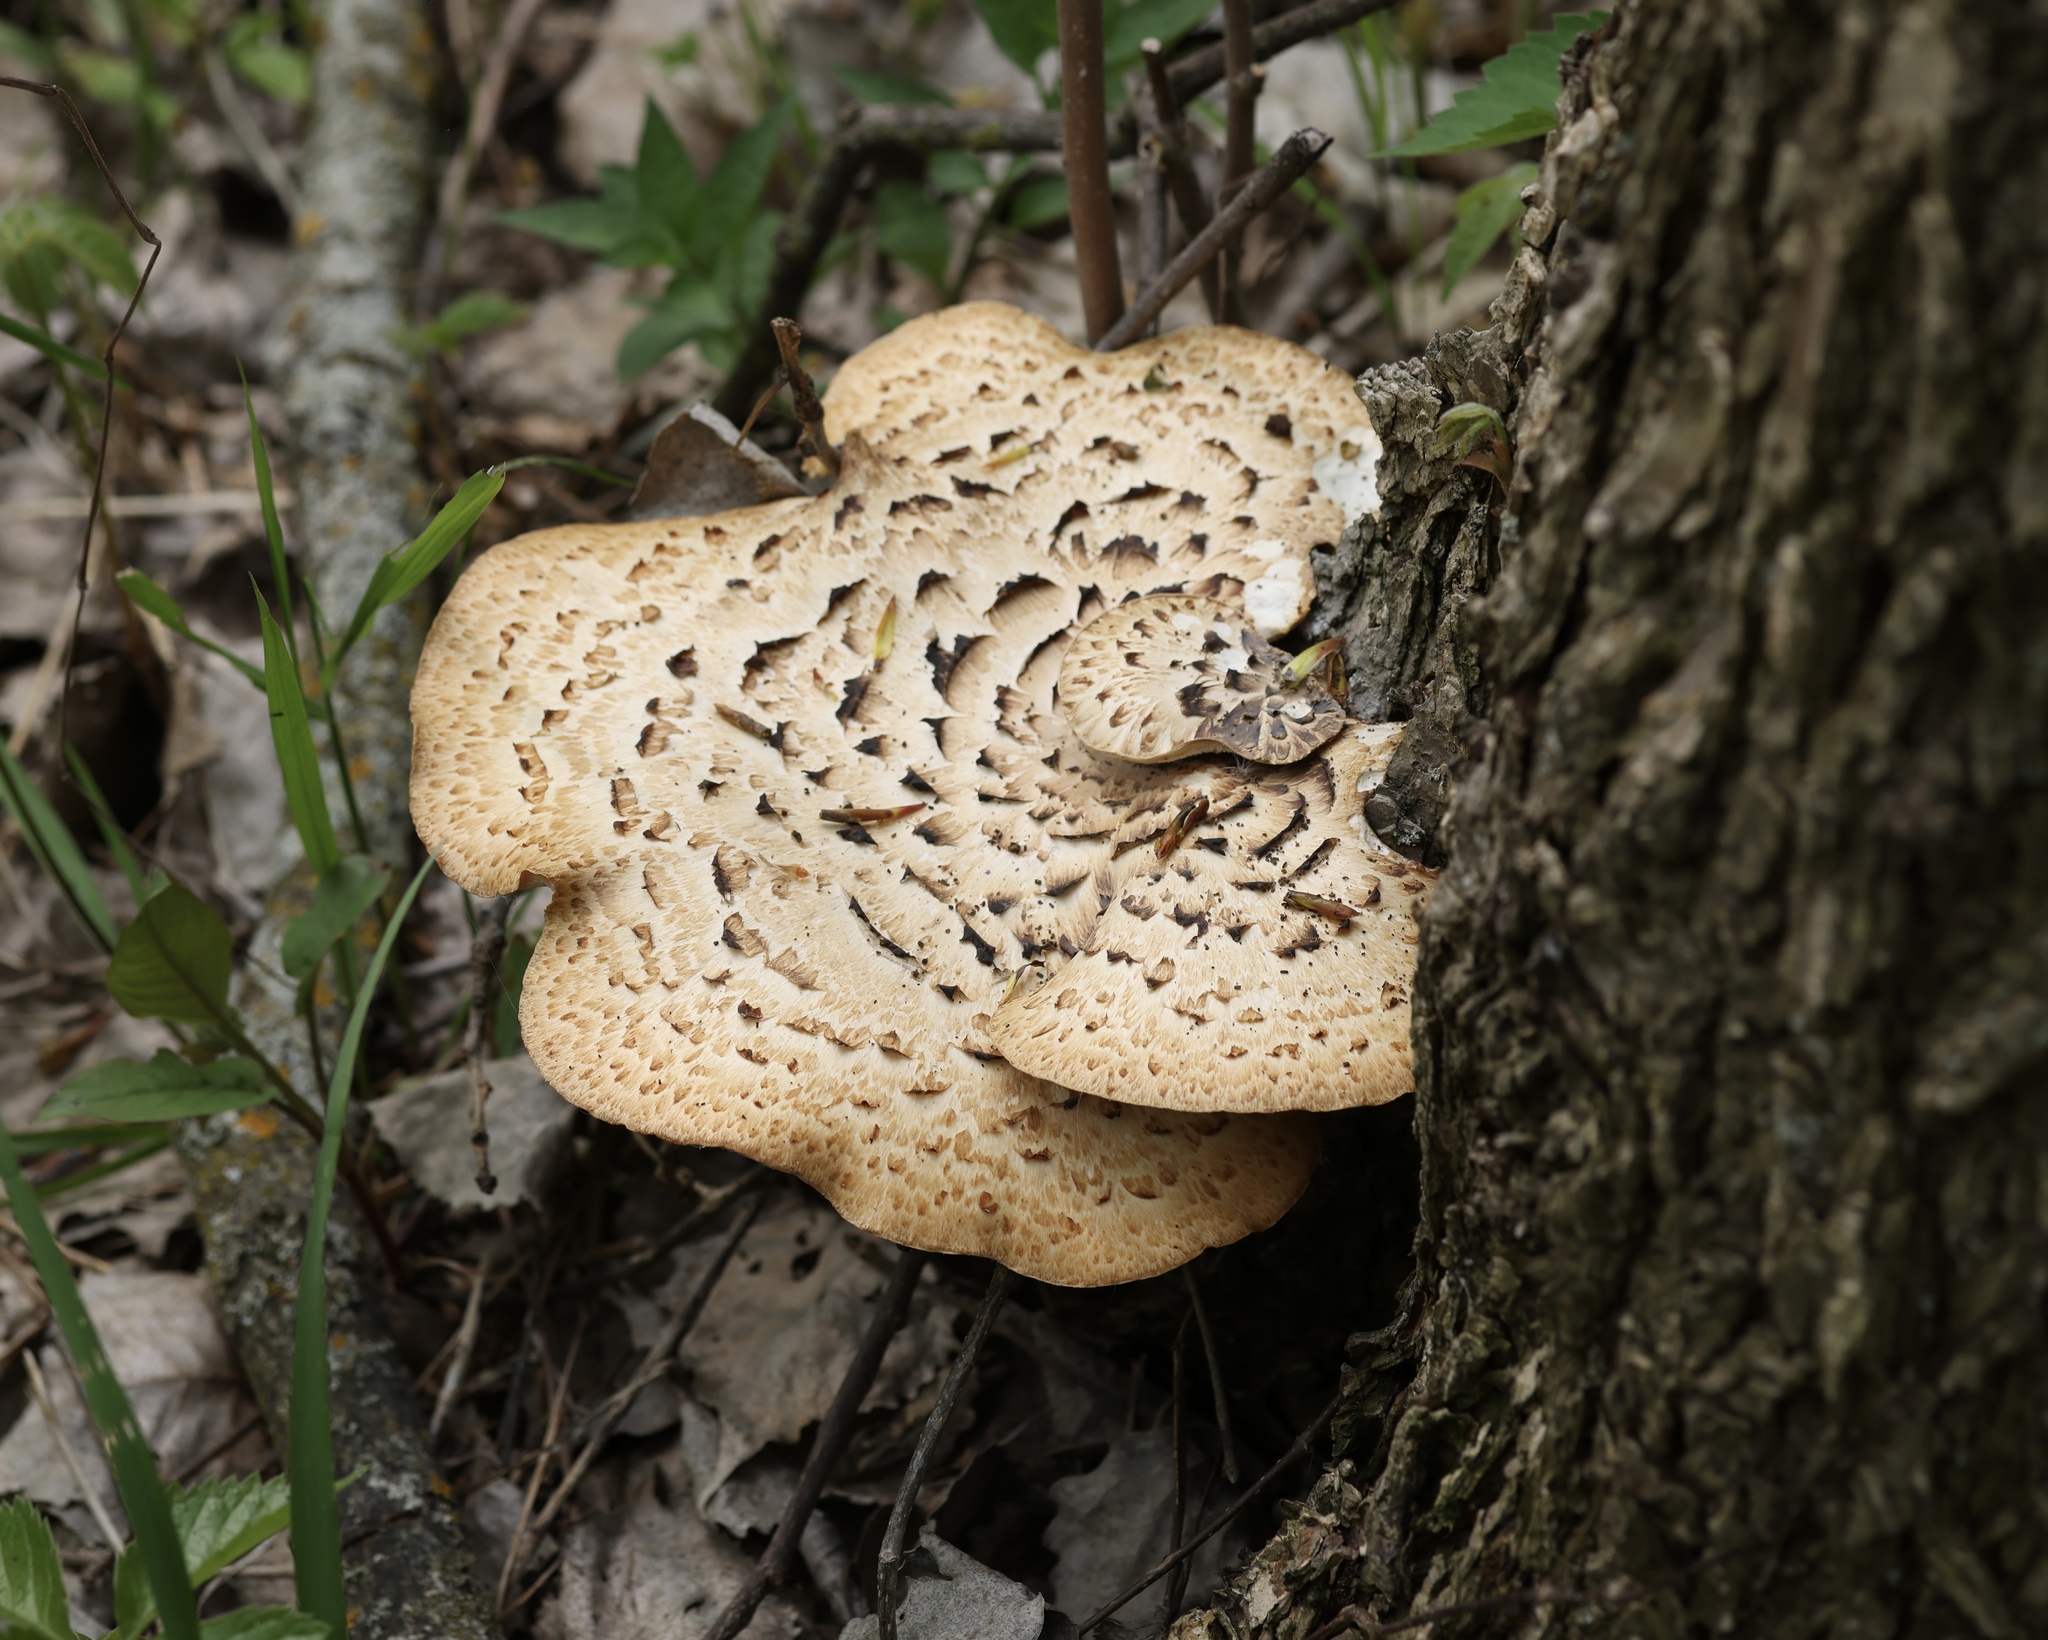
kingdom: Fungi
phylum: Basidiomycota
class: Agaricomycetes
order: Polyporales
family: Polyporaceae
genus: Cerioporus
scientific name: Cerioporus squamosus
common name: Dryad's saddle
